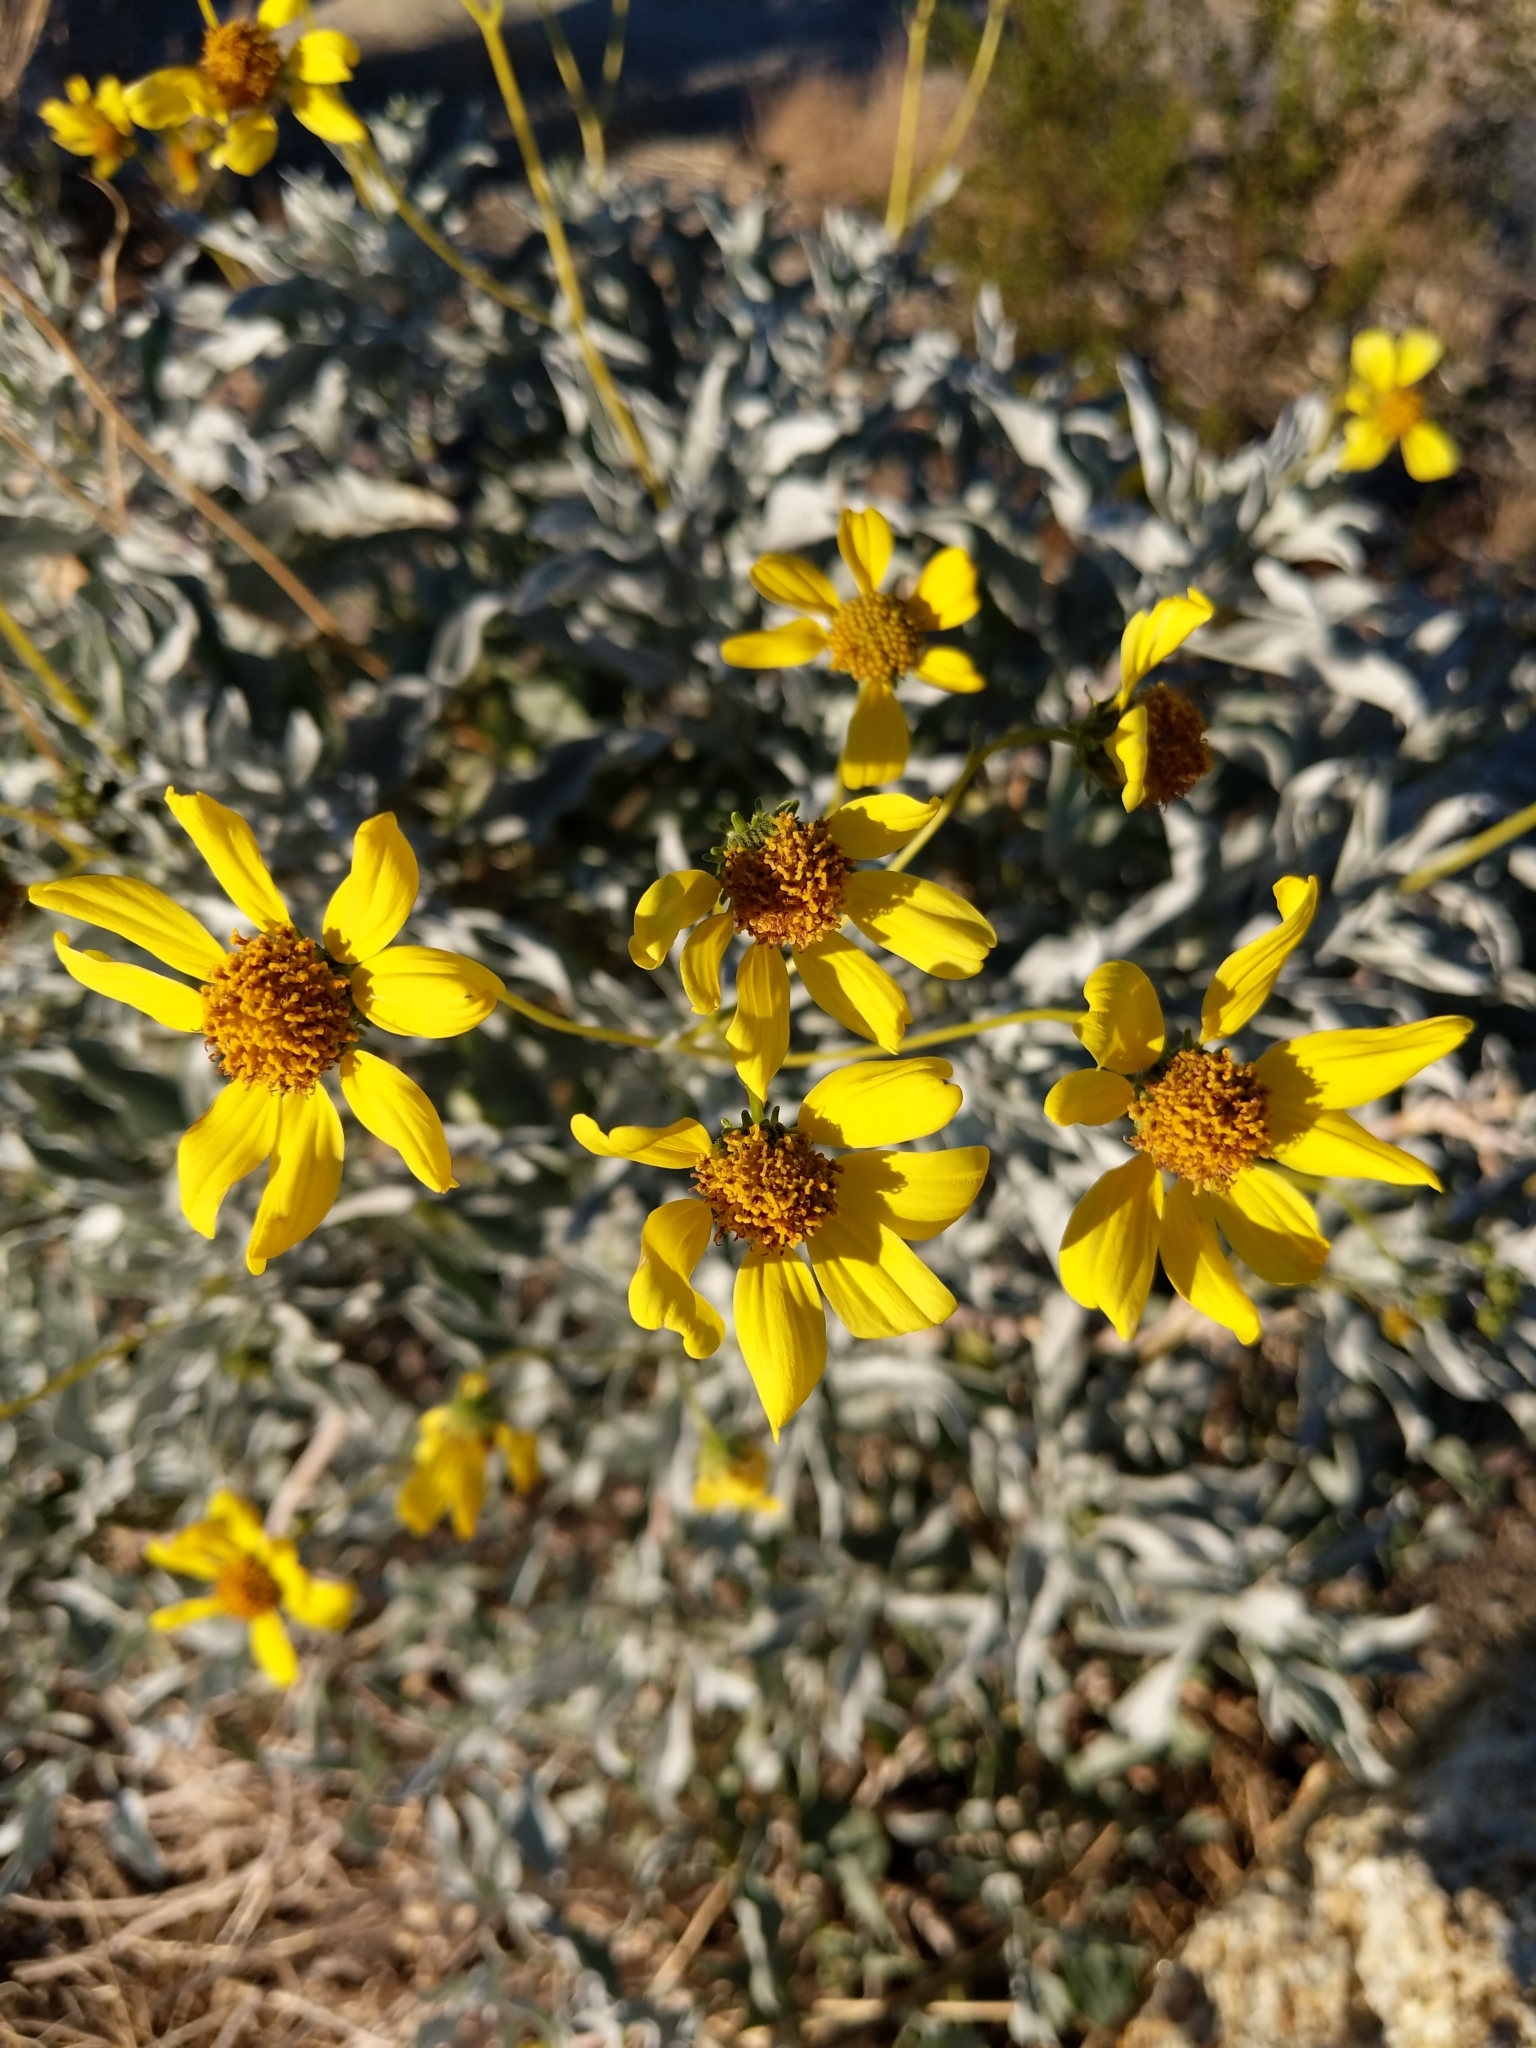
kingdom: Plantae
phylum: Tracheophyta
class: Magnoliopsida
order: Asterales
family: Asteraceae
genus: Encelia
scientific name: Encelia farinosa
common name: Brittlebush
